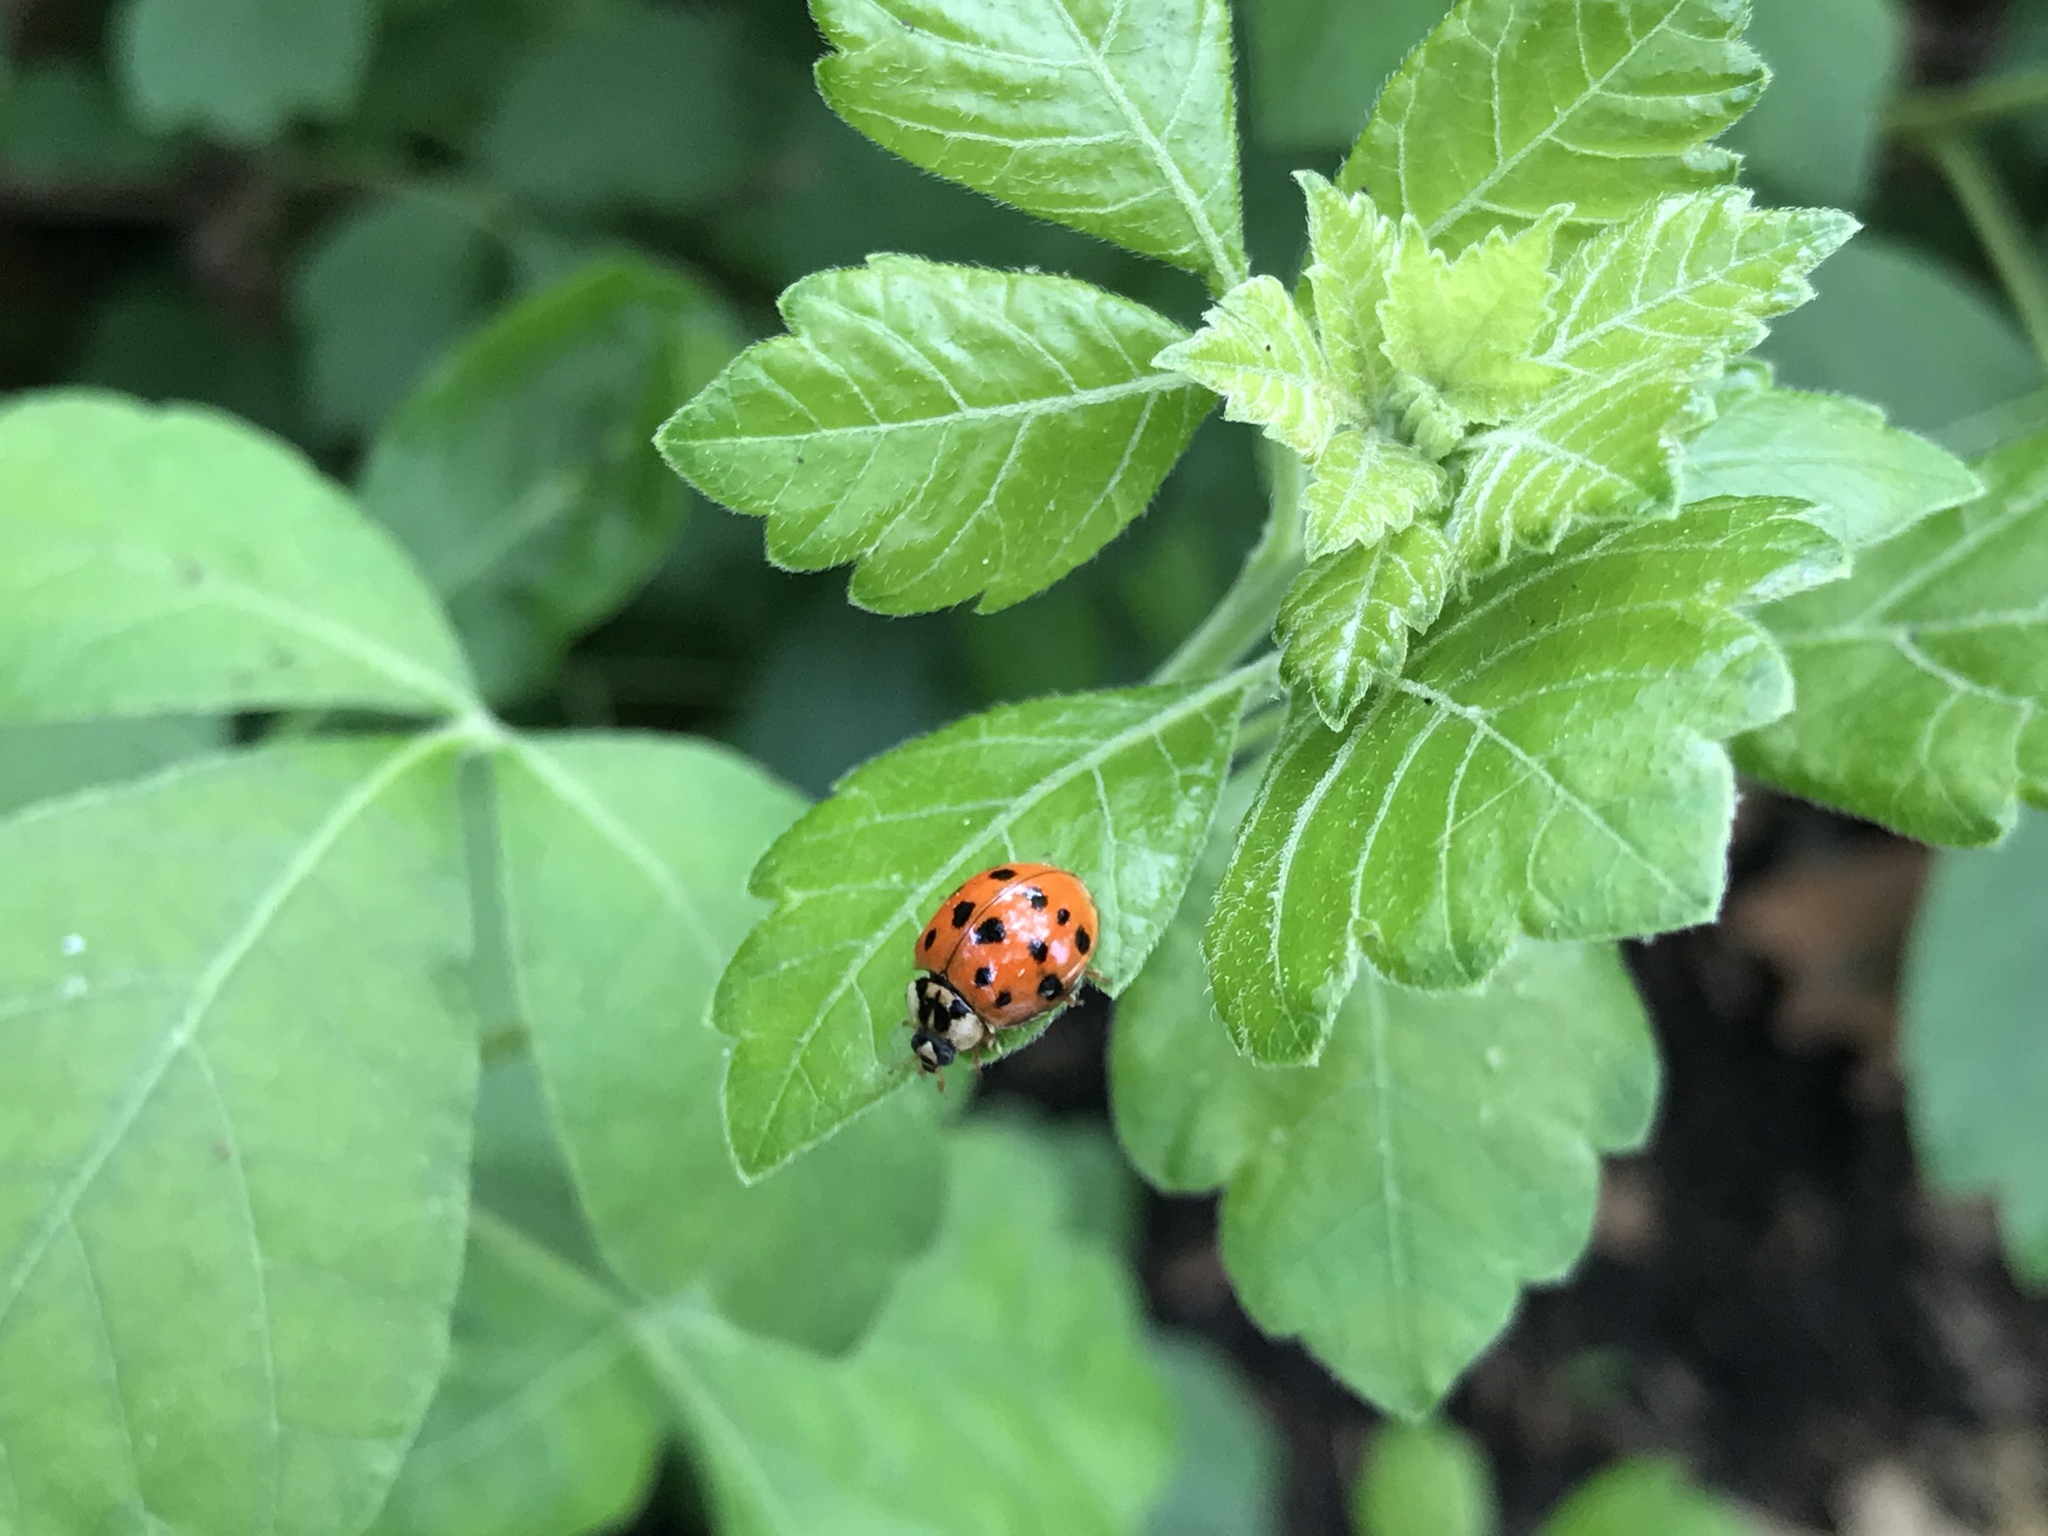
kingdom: Animalia
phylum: Arthropoda
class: Insecta
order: Coleoptera
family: Coccinellidae
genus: Harmonia
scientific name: Harmonia axyridis
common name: Harlequin ladybird
